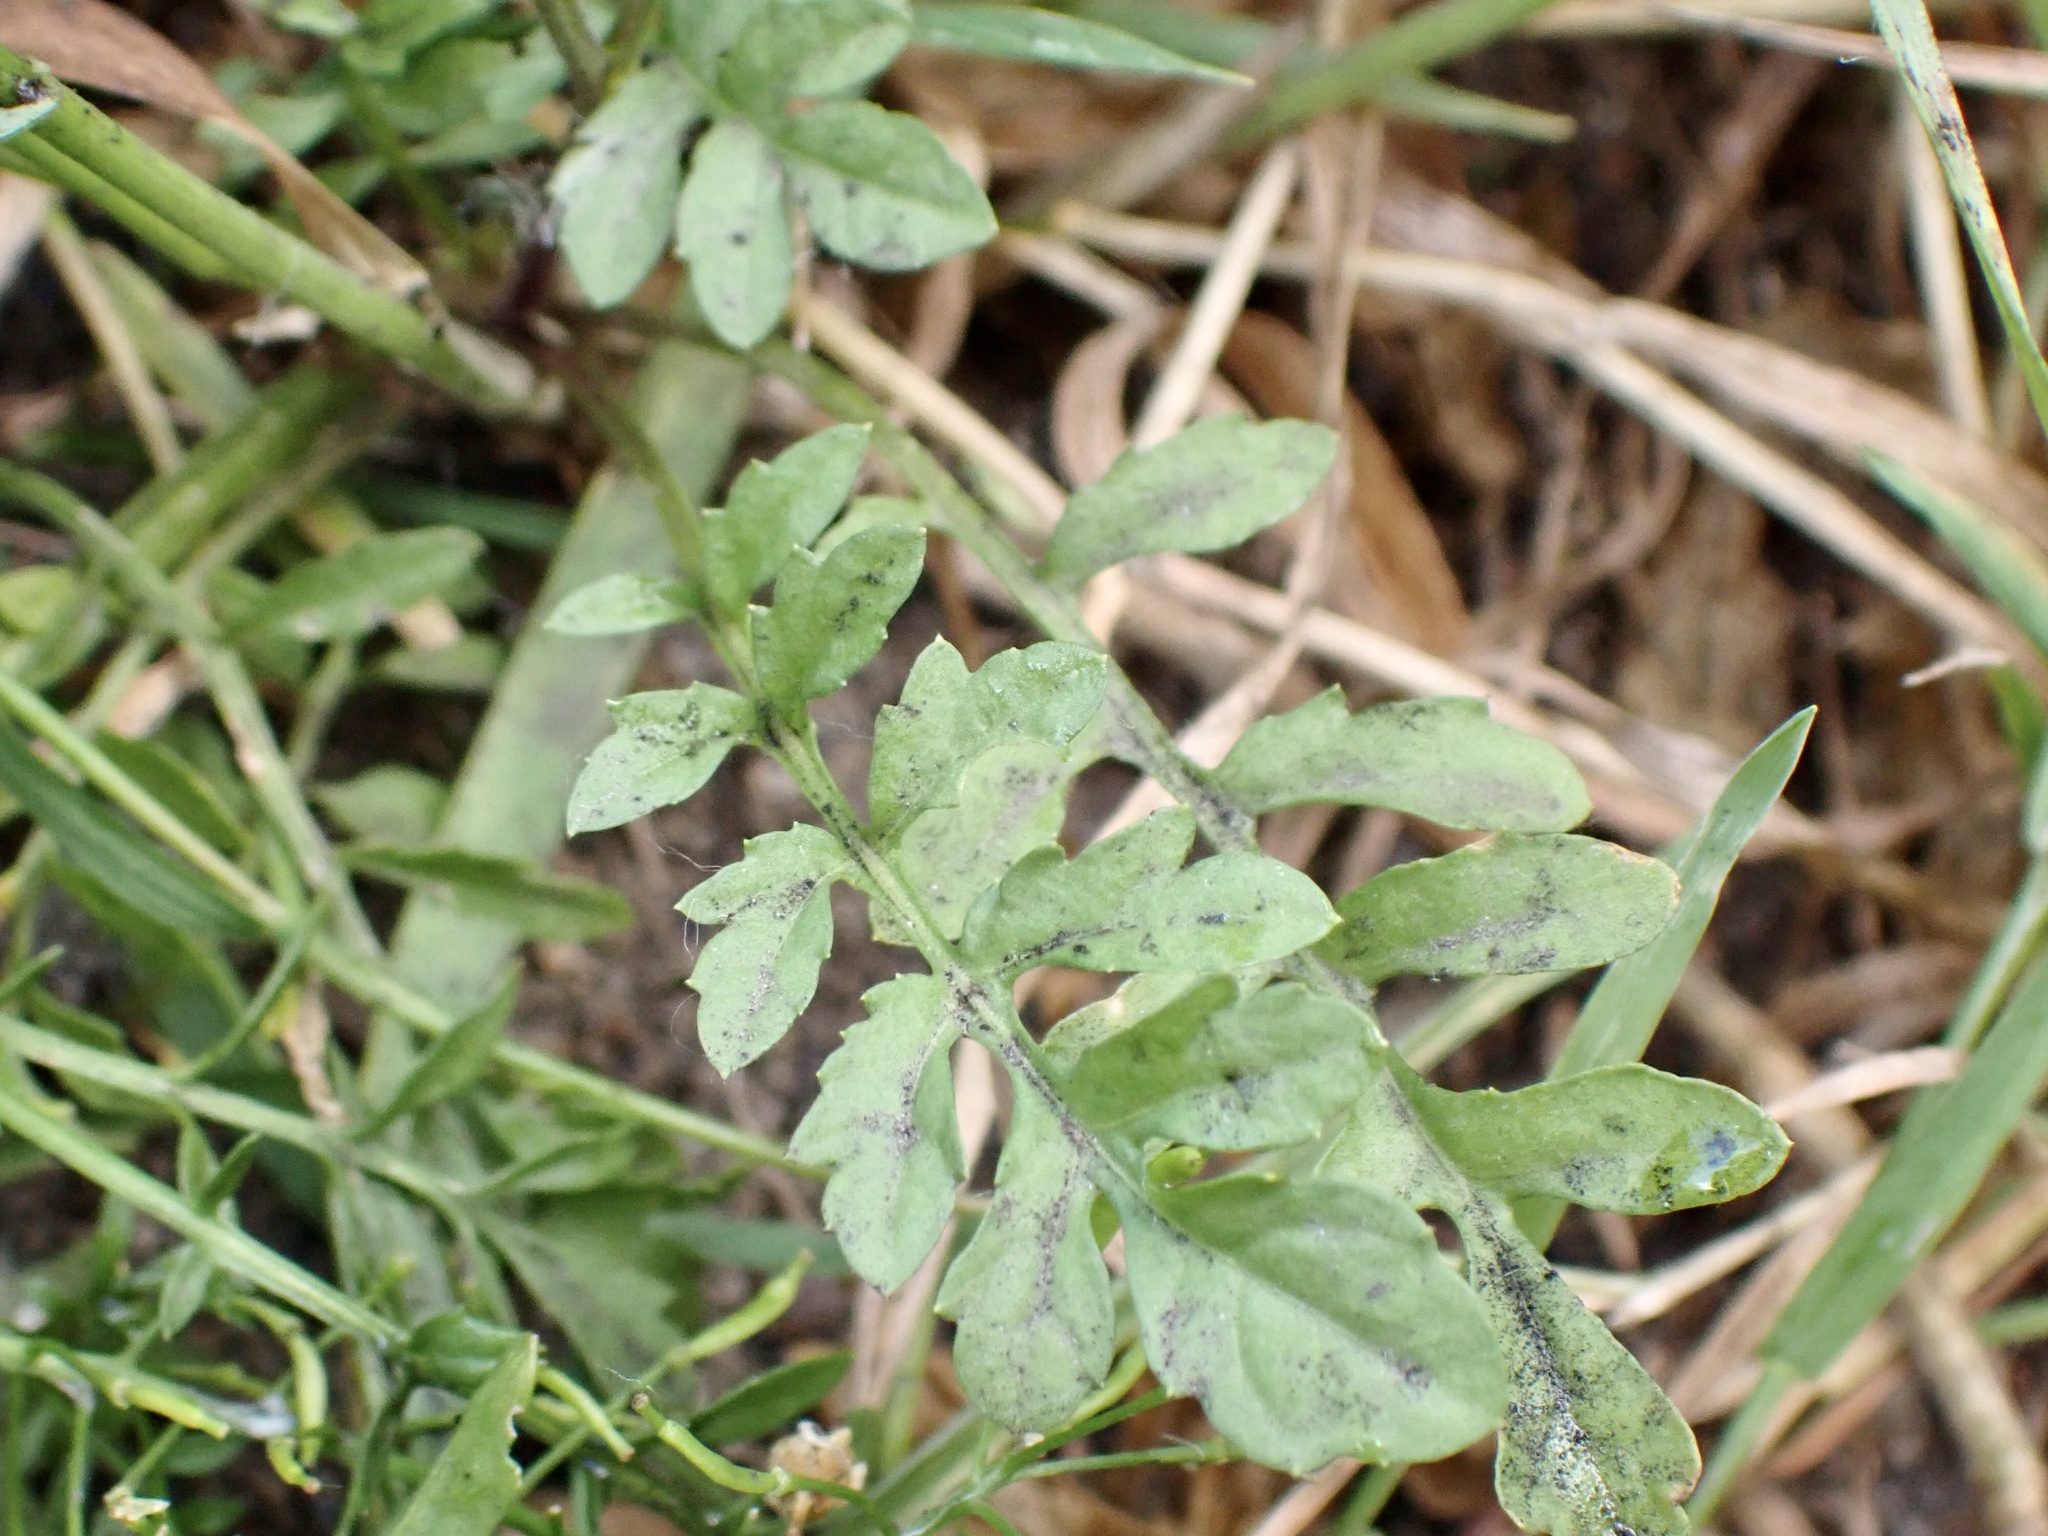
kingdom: Plantae
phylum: Tracheophyta
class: Magnoliopsida
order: Brassicales
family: Brassicaceae
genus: Rorippa
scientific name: Rorippa sylvestris
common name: Creeping yellowcress
